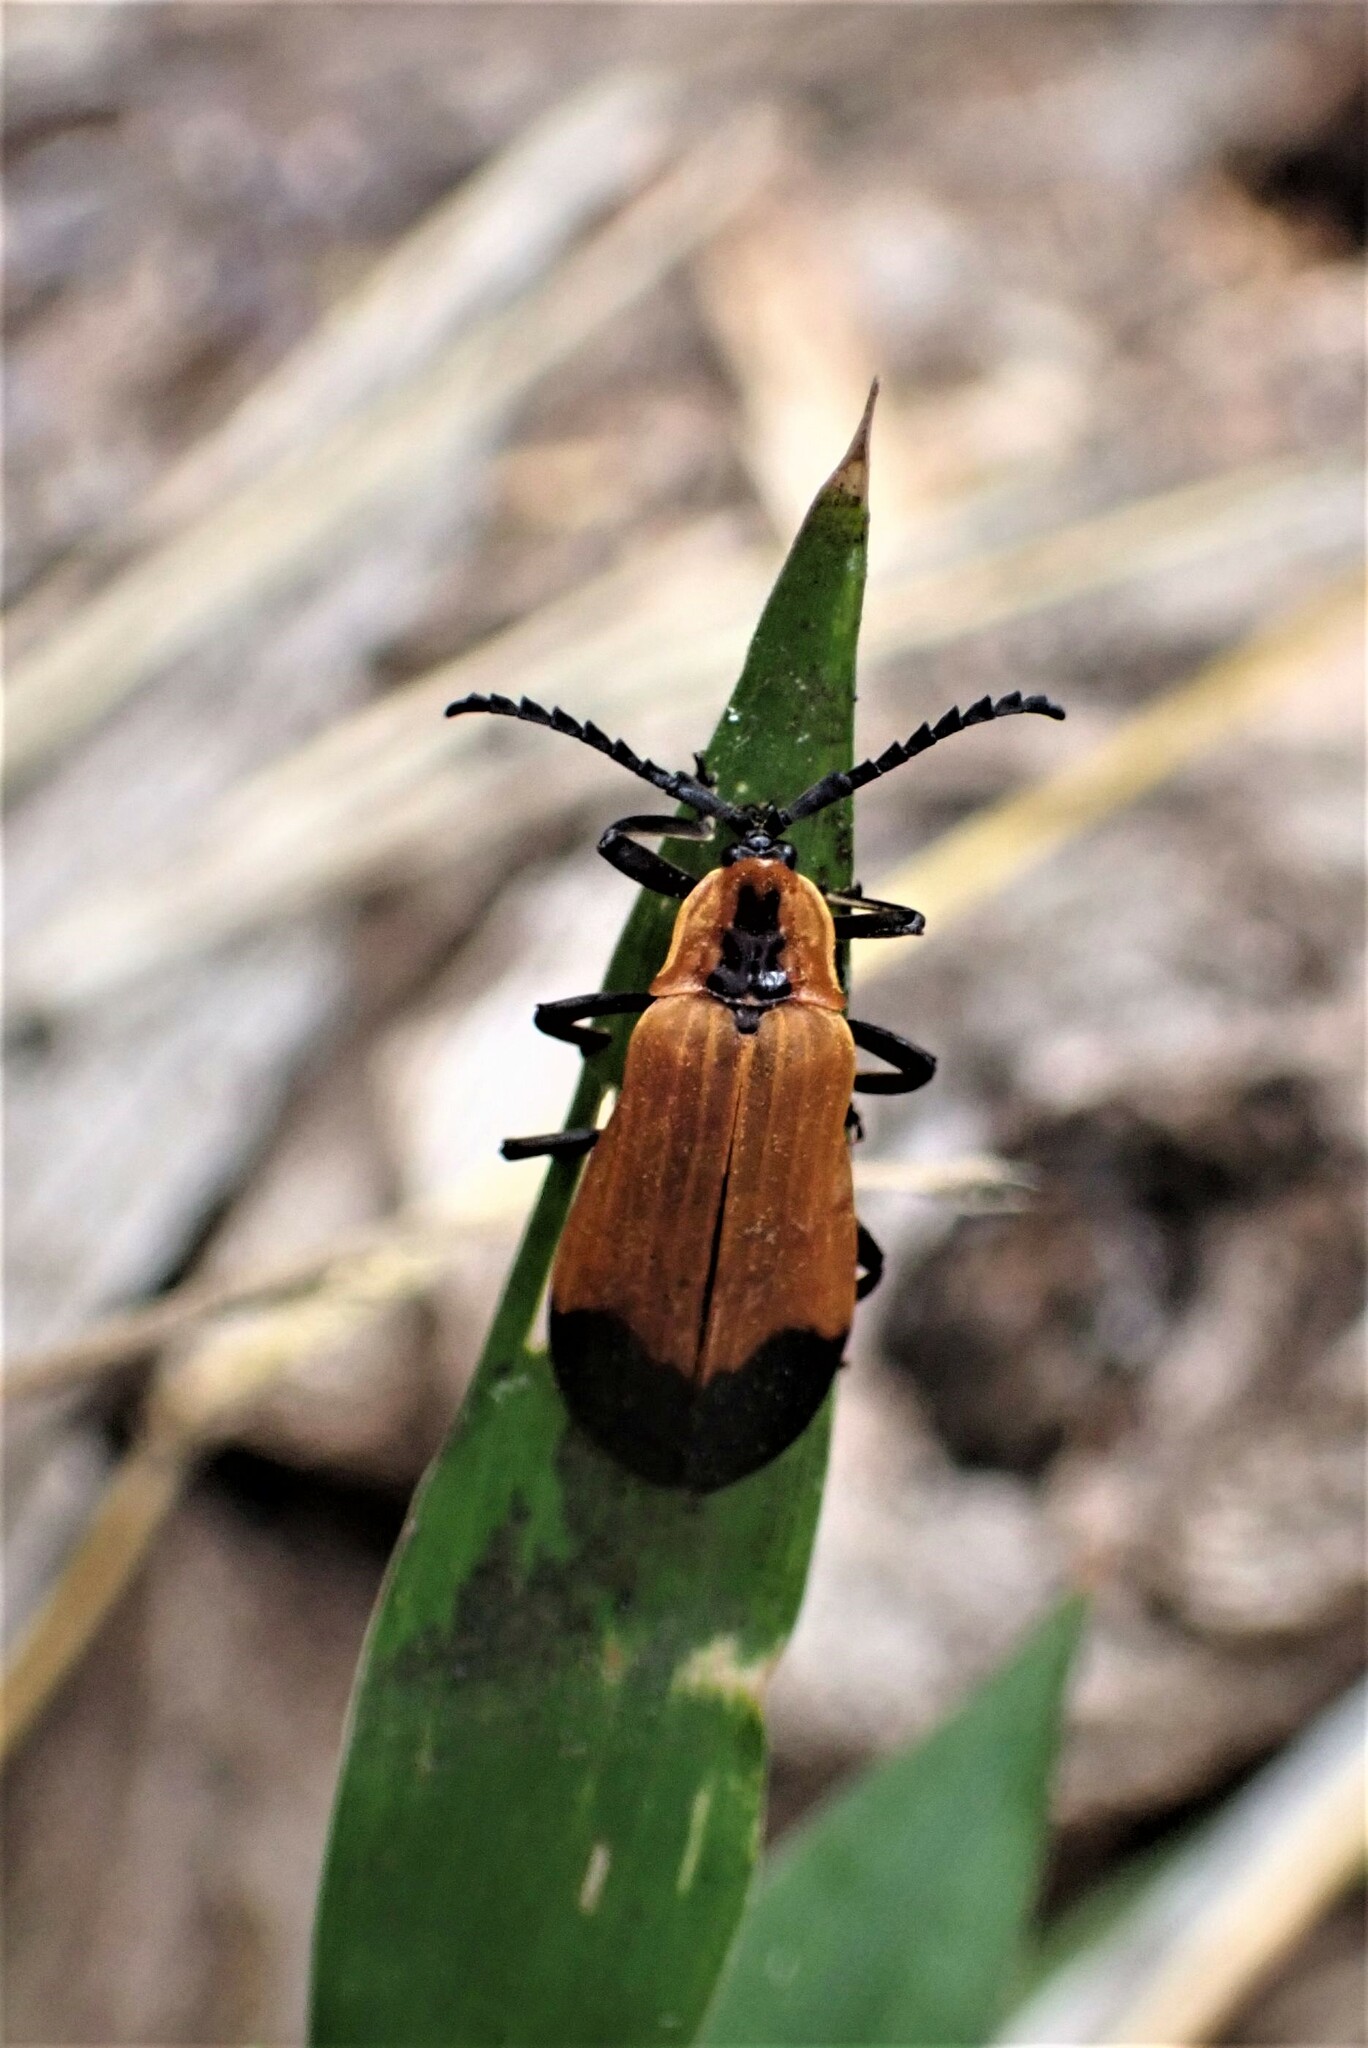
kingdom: Animalia
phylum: Arthropoda
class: Insecta
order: Coleoptera
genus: Haplolycus
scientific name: Haplolycus
